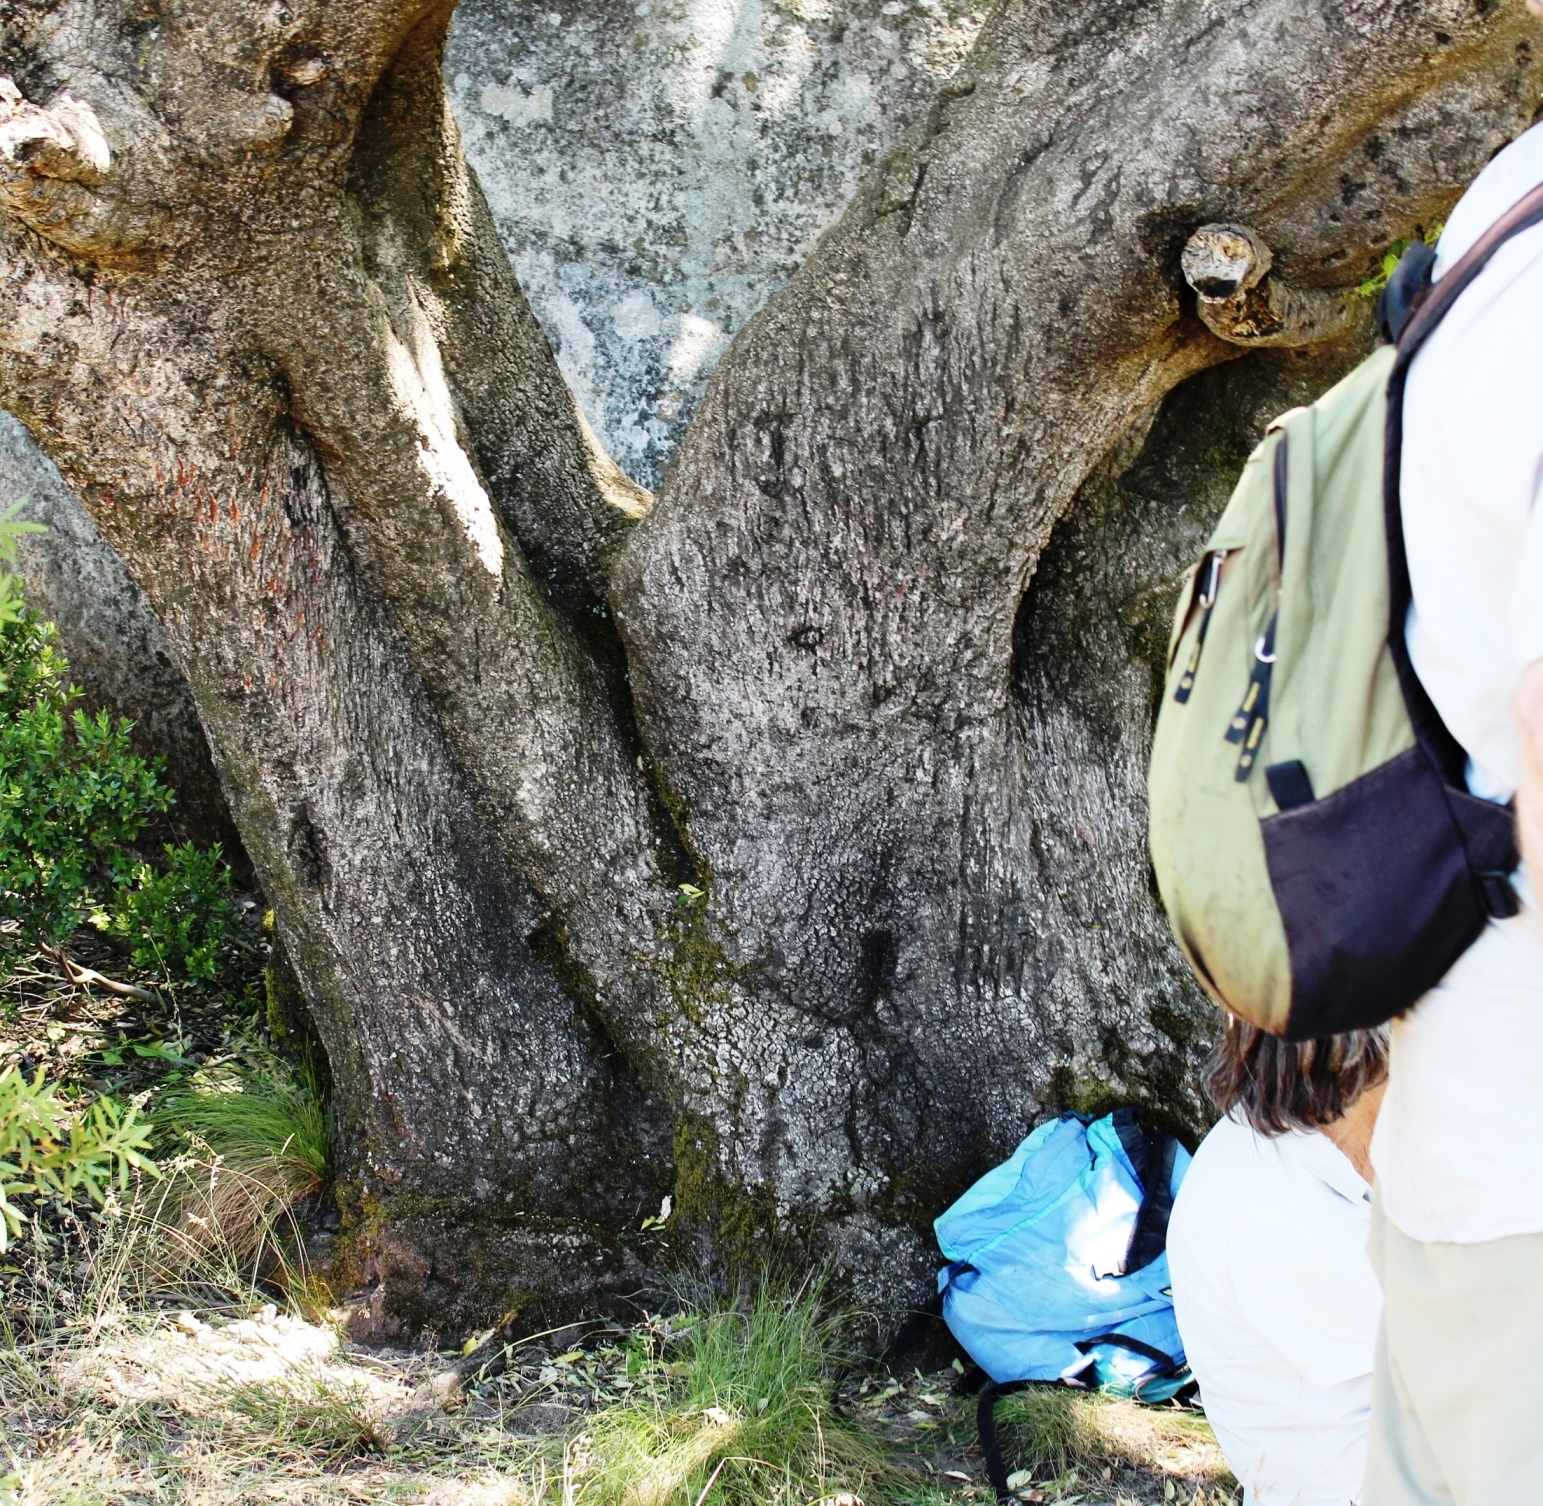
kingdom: Animalia
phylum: Chordata
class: Mammalia
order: Carnivora
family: Felidae
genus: Panthera
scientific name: Panthera pardus
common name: Leopard
